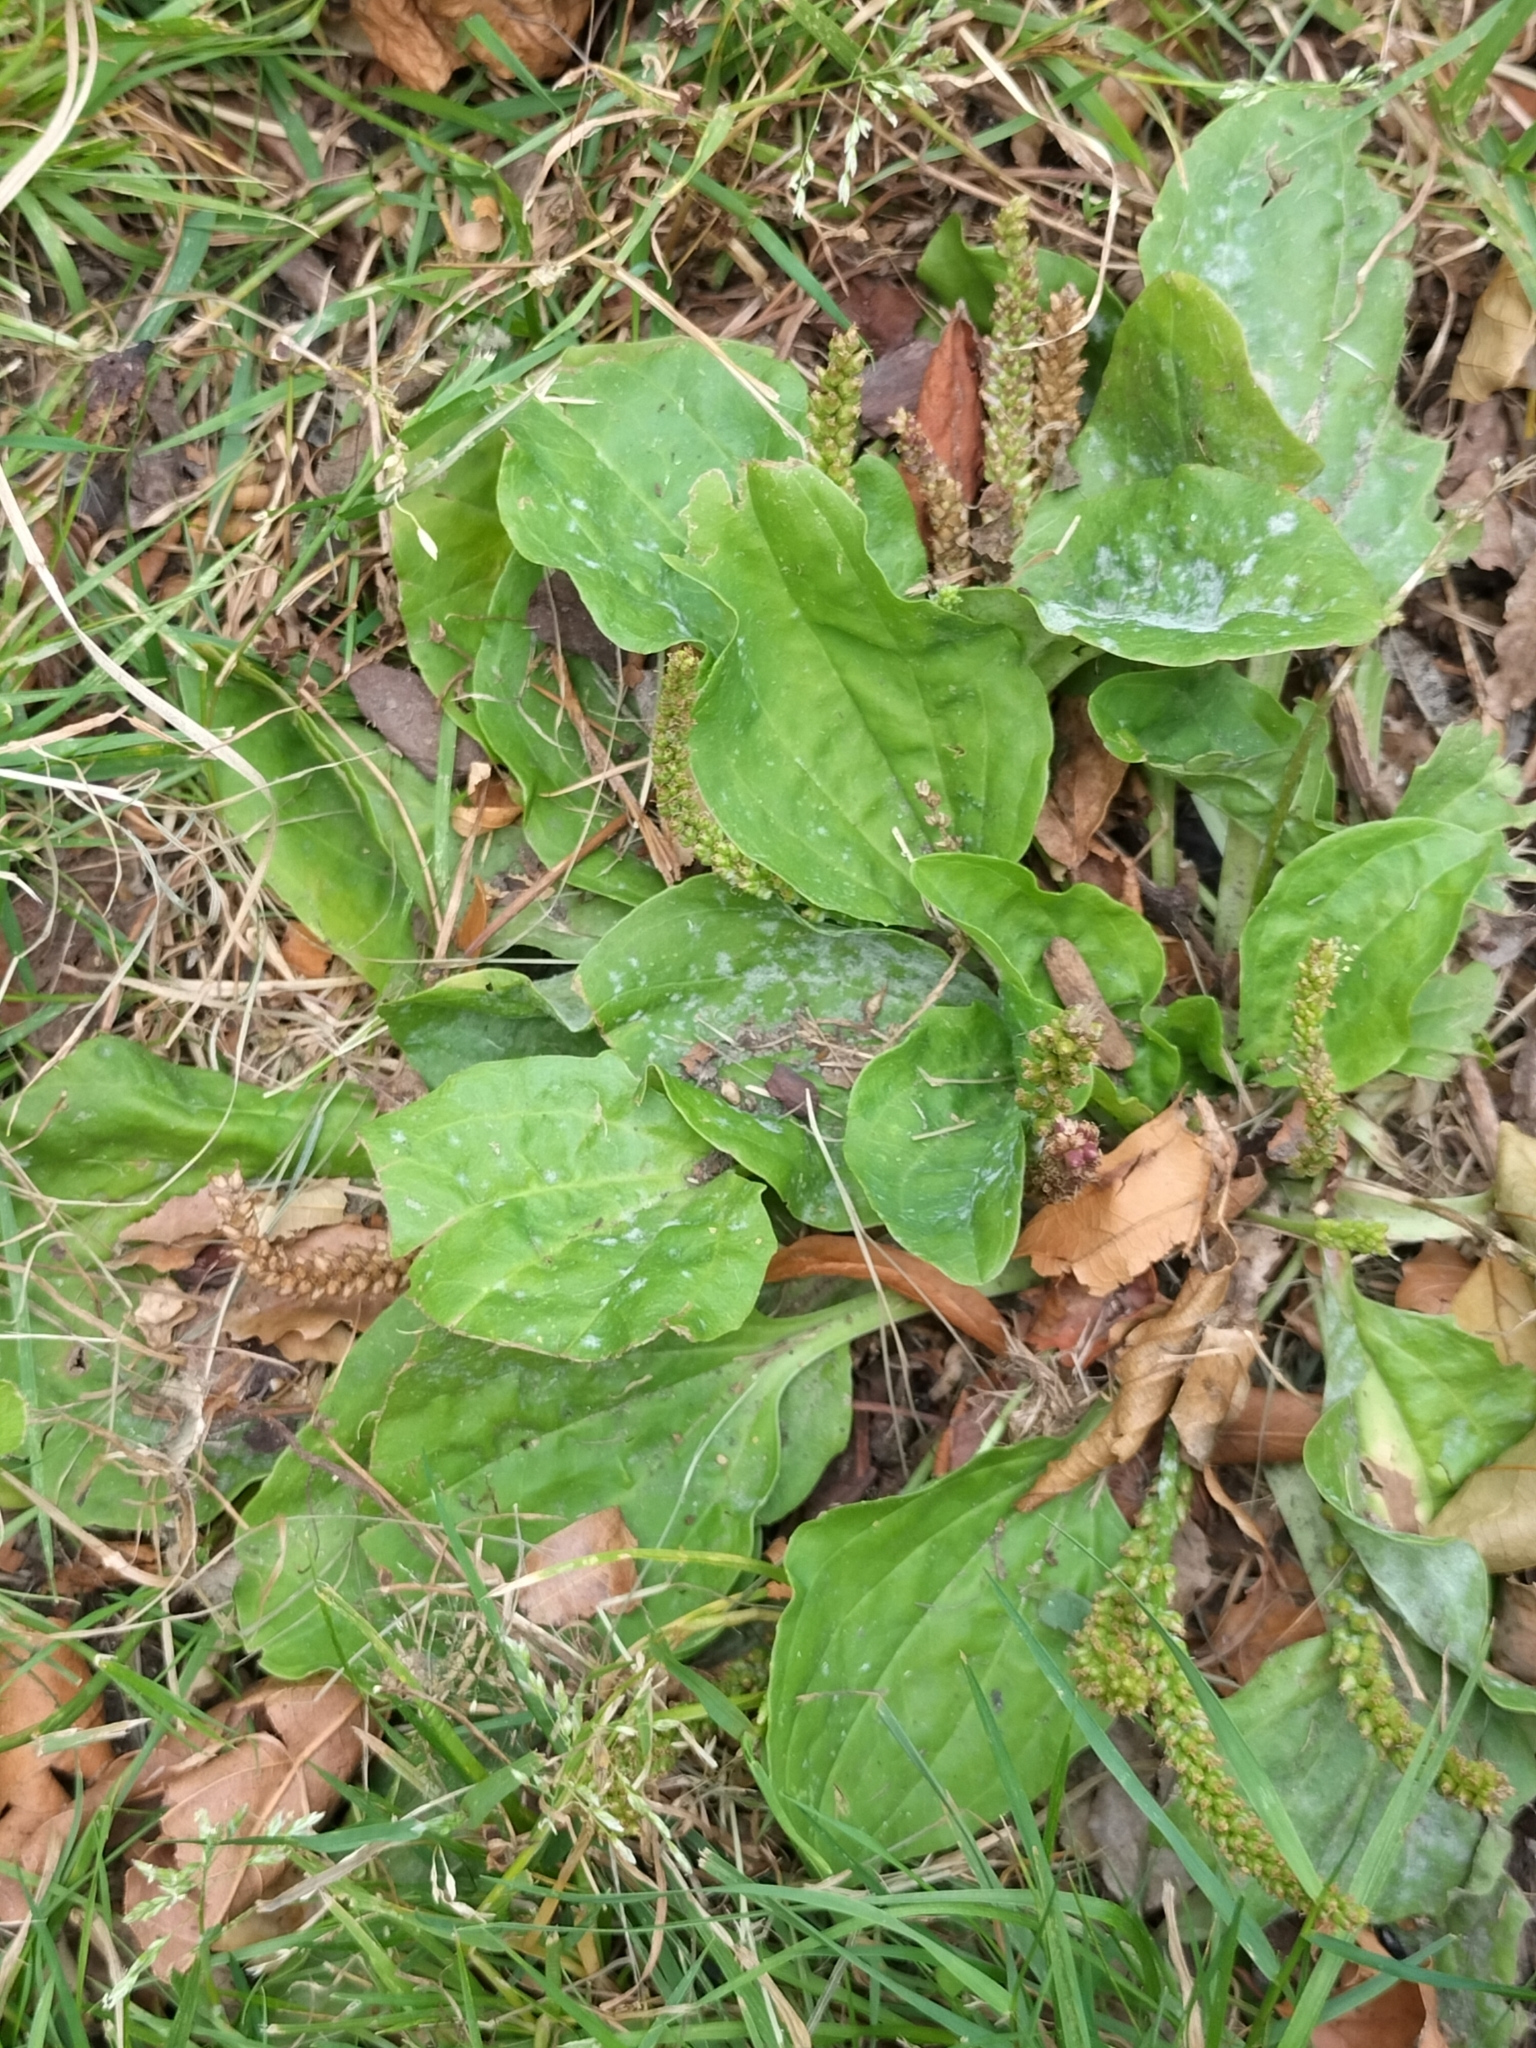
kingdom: Plantae
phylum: Tracheophyta
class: Magnoliopsida
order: Lamiales
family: Plantaginaceae
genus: Plantago
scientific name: Plantago major
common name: Common plantain
